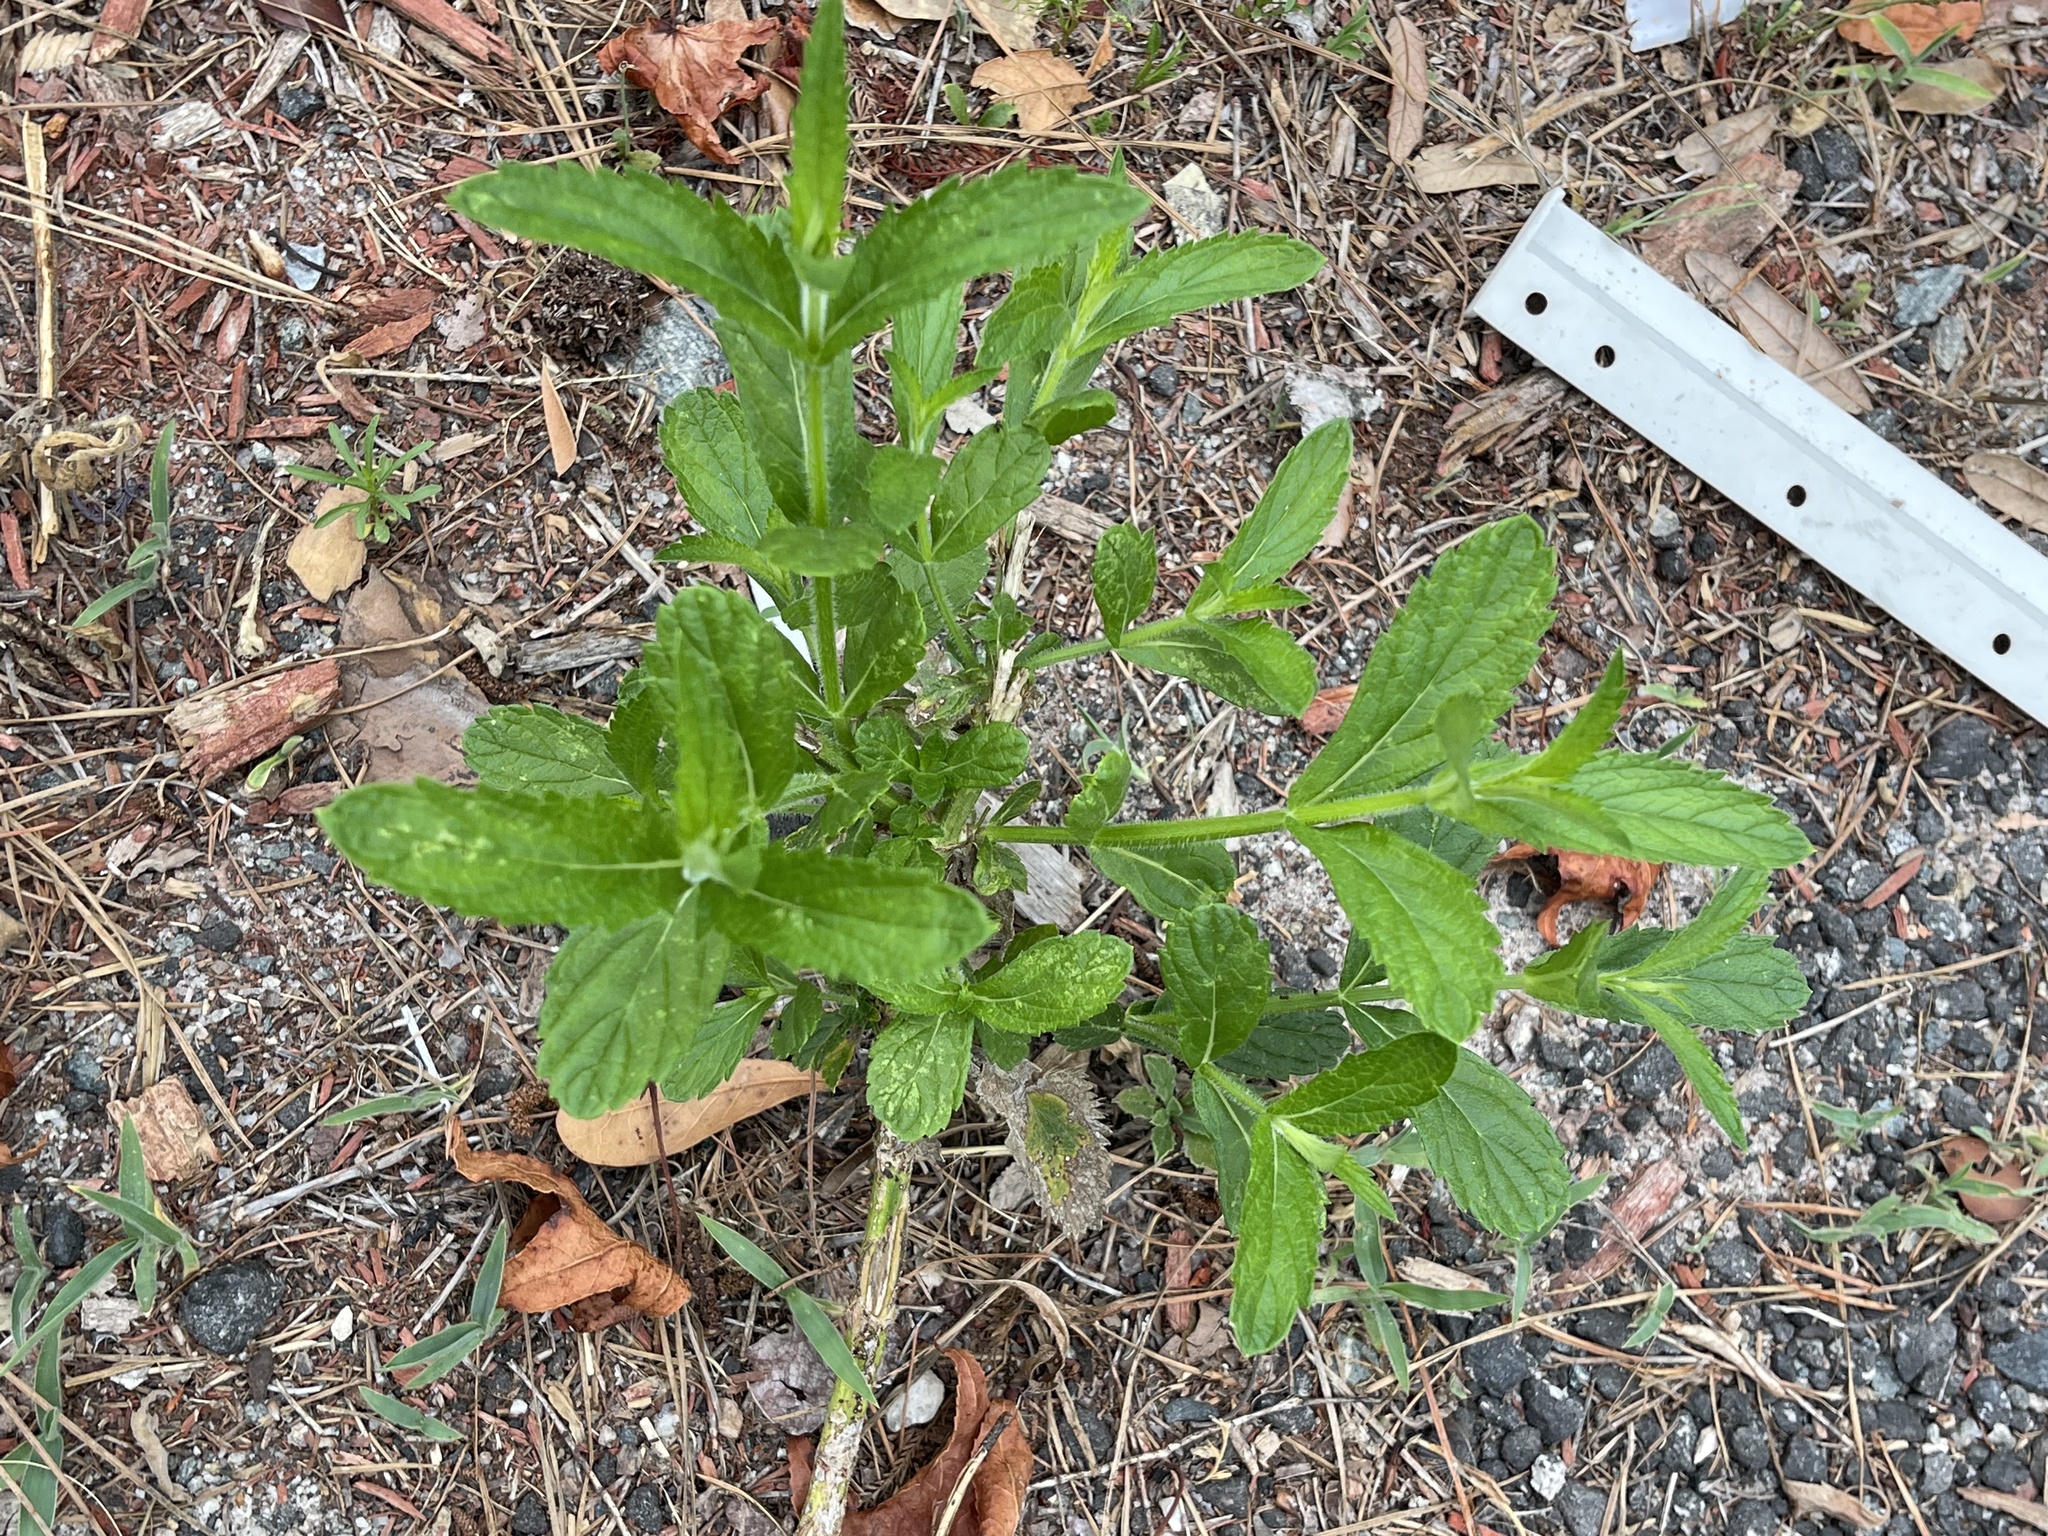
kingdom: Plantae
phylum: Tracheophyta
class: Magnoliopsida
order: Lamiales
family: Verbenaceae
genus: Verbena
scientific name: Verbena bonariensis
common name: Purpletop vervain
